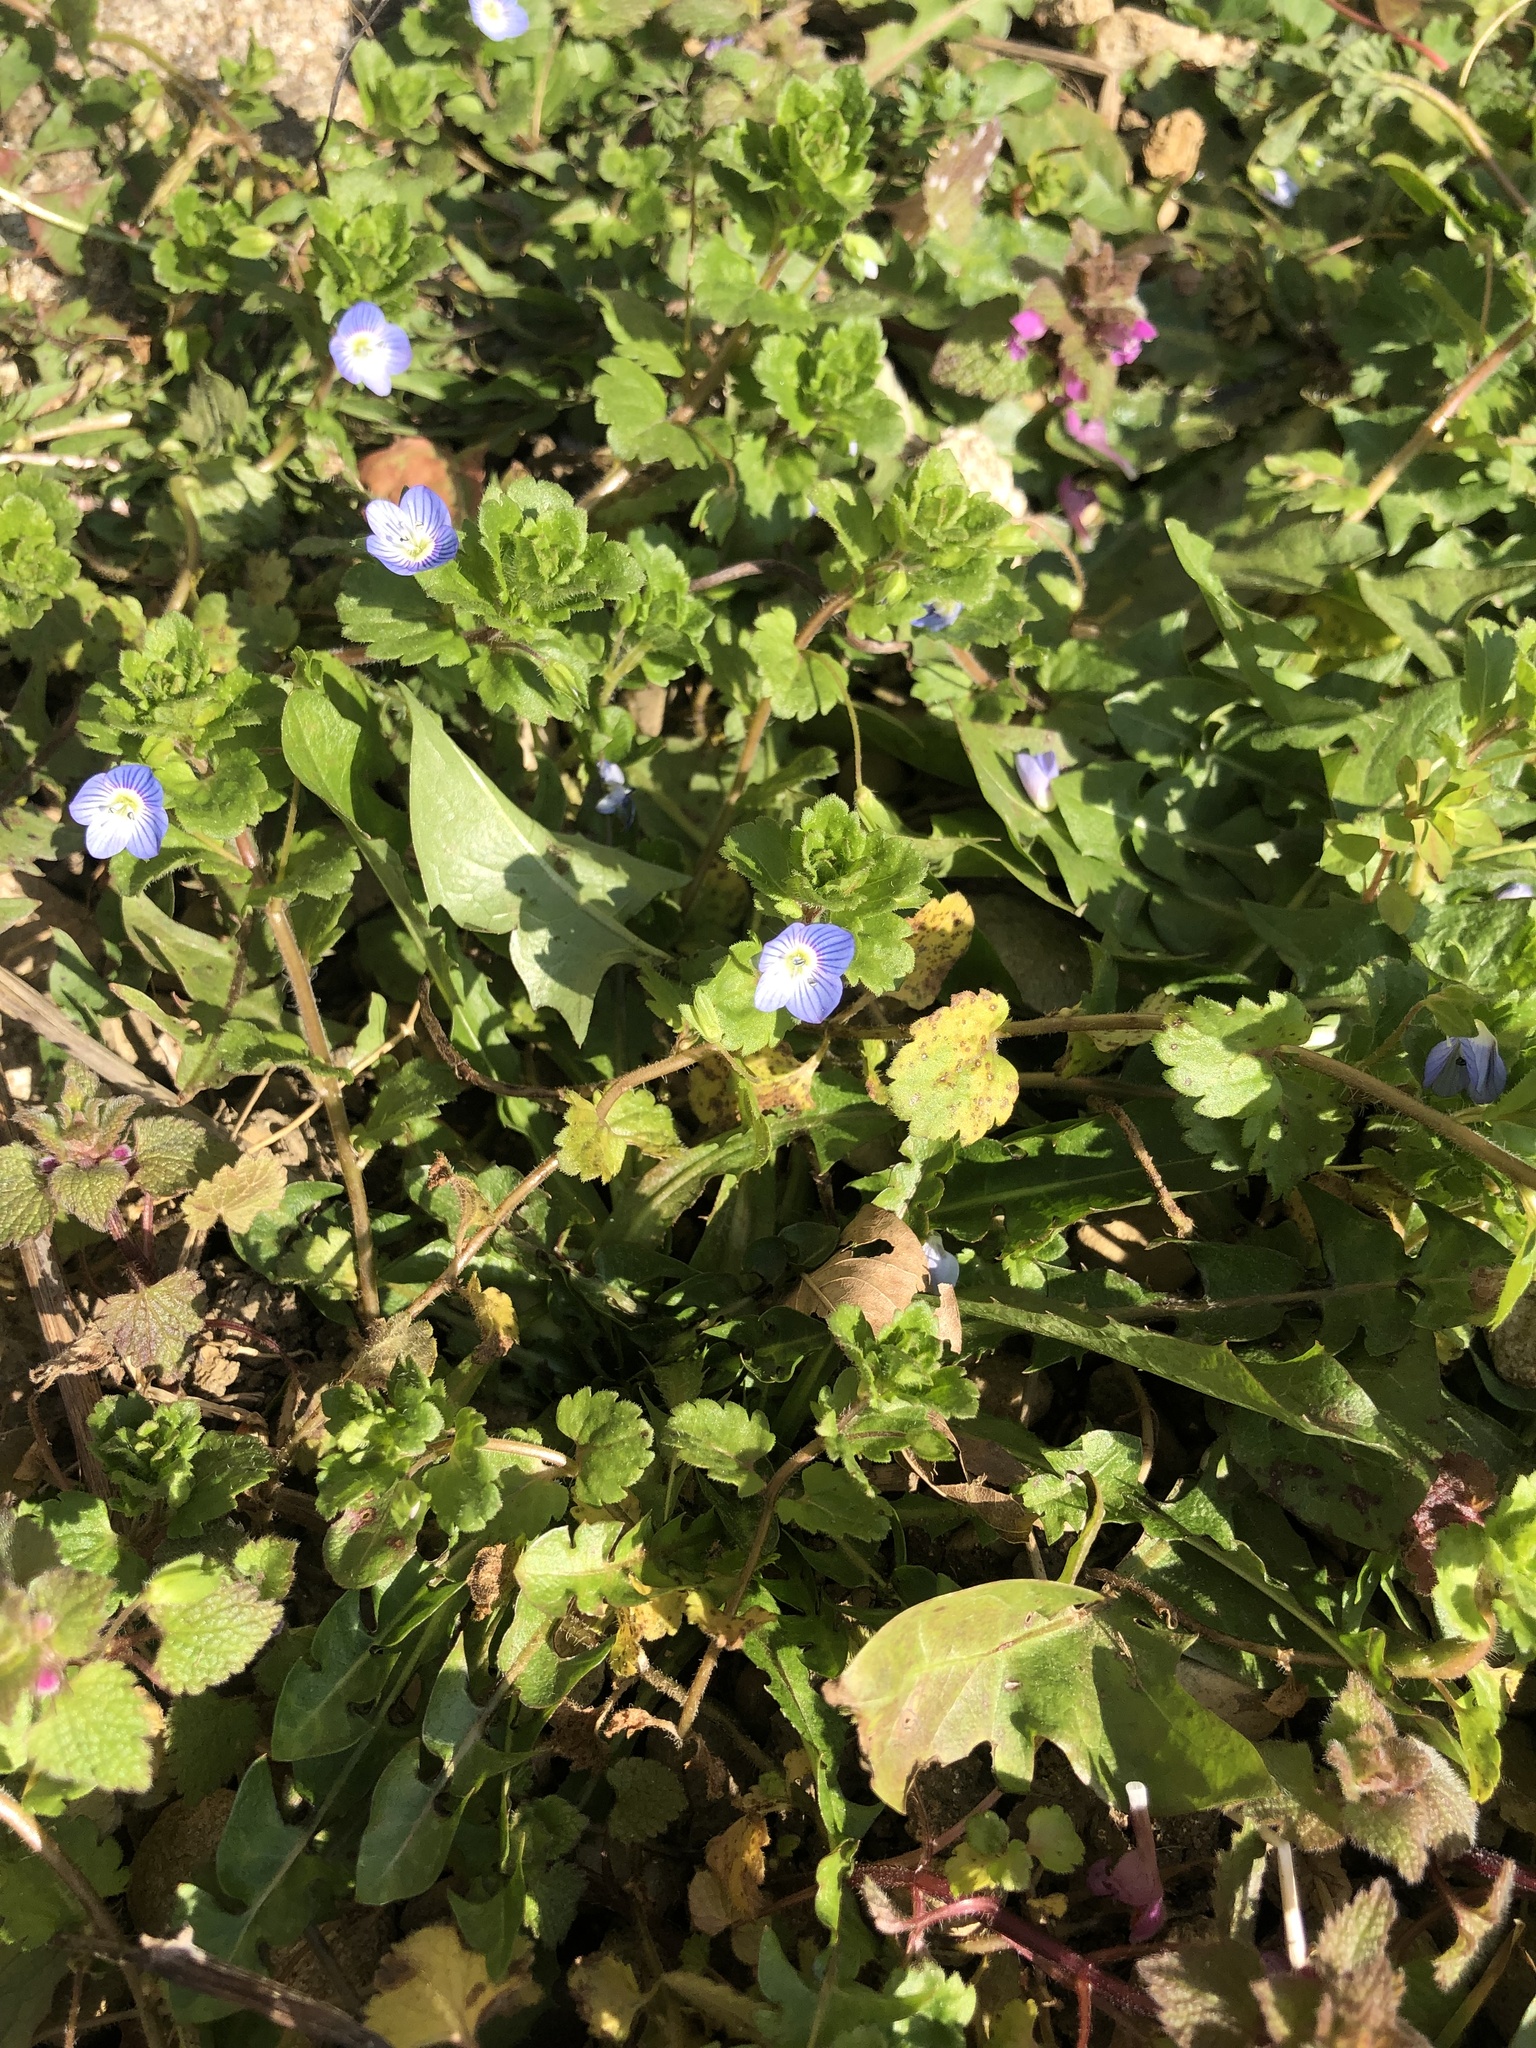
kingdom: Plantae
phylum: Tracheophyta
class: Magnoliopsida
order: Lamiales
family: Plantaginaceae
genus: Veronica
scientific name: Veronica persica
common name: Common field-speedwell
